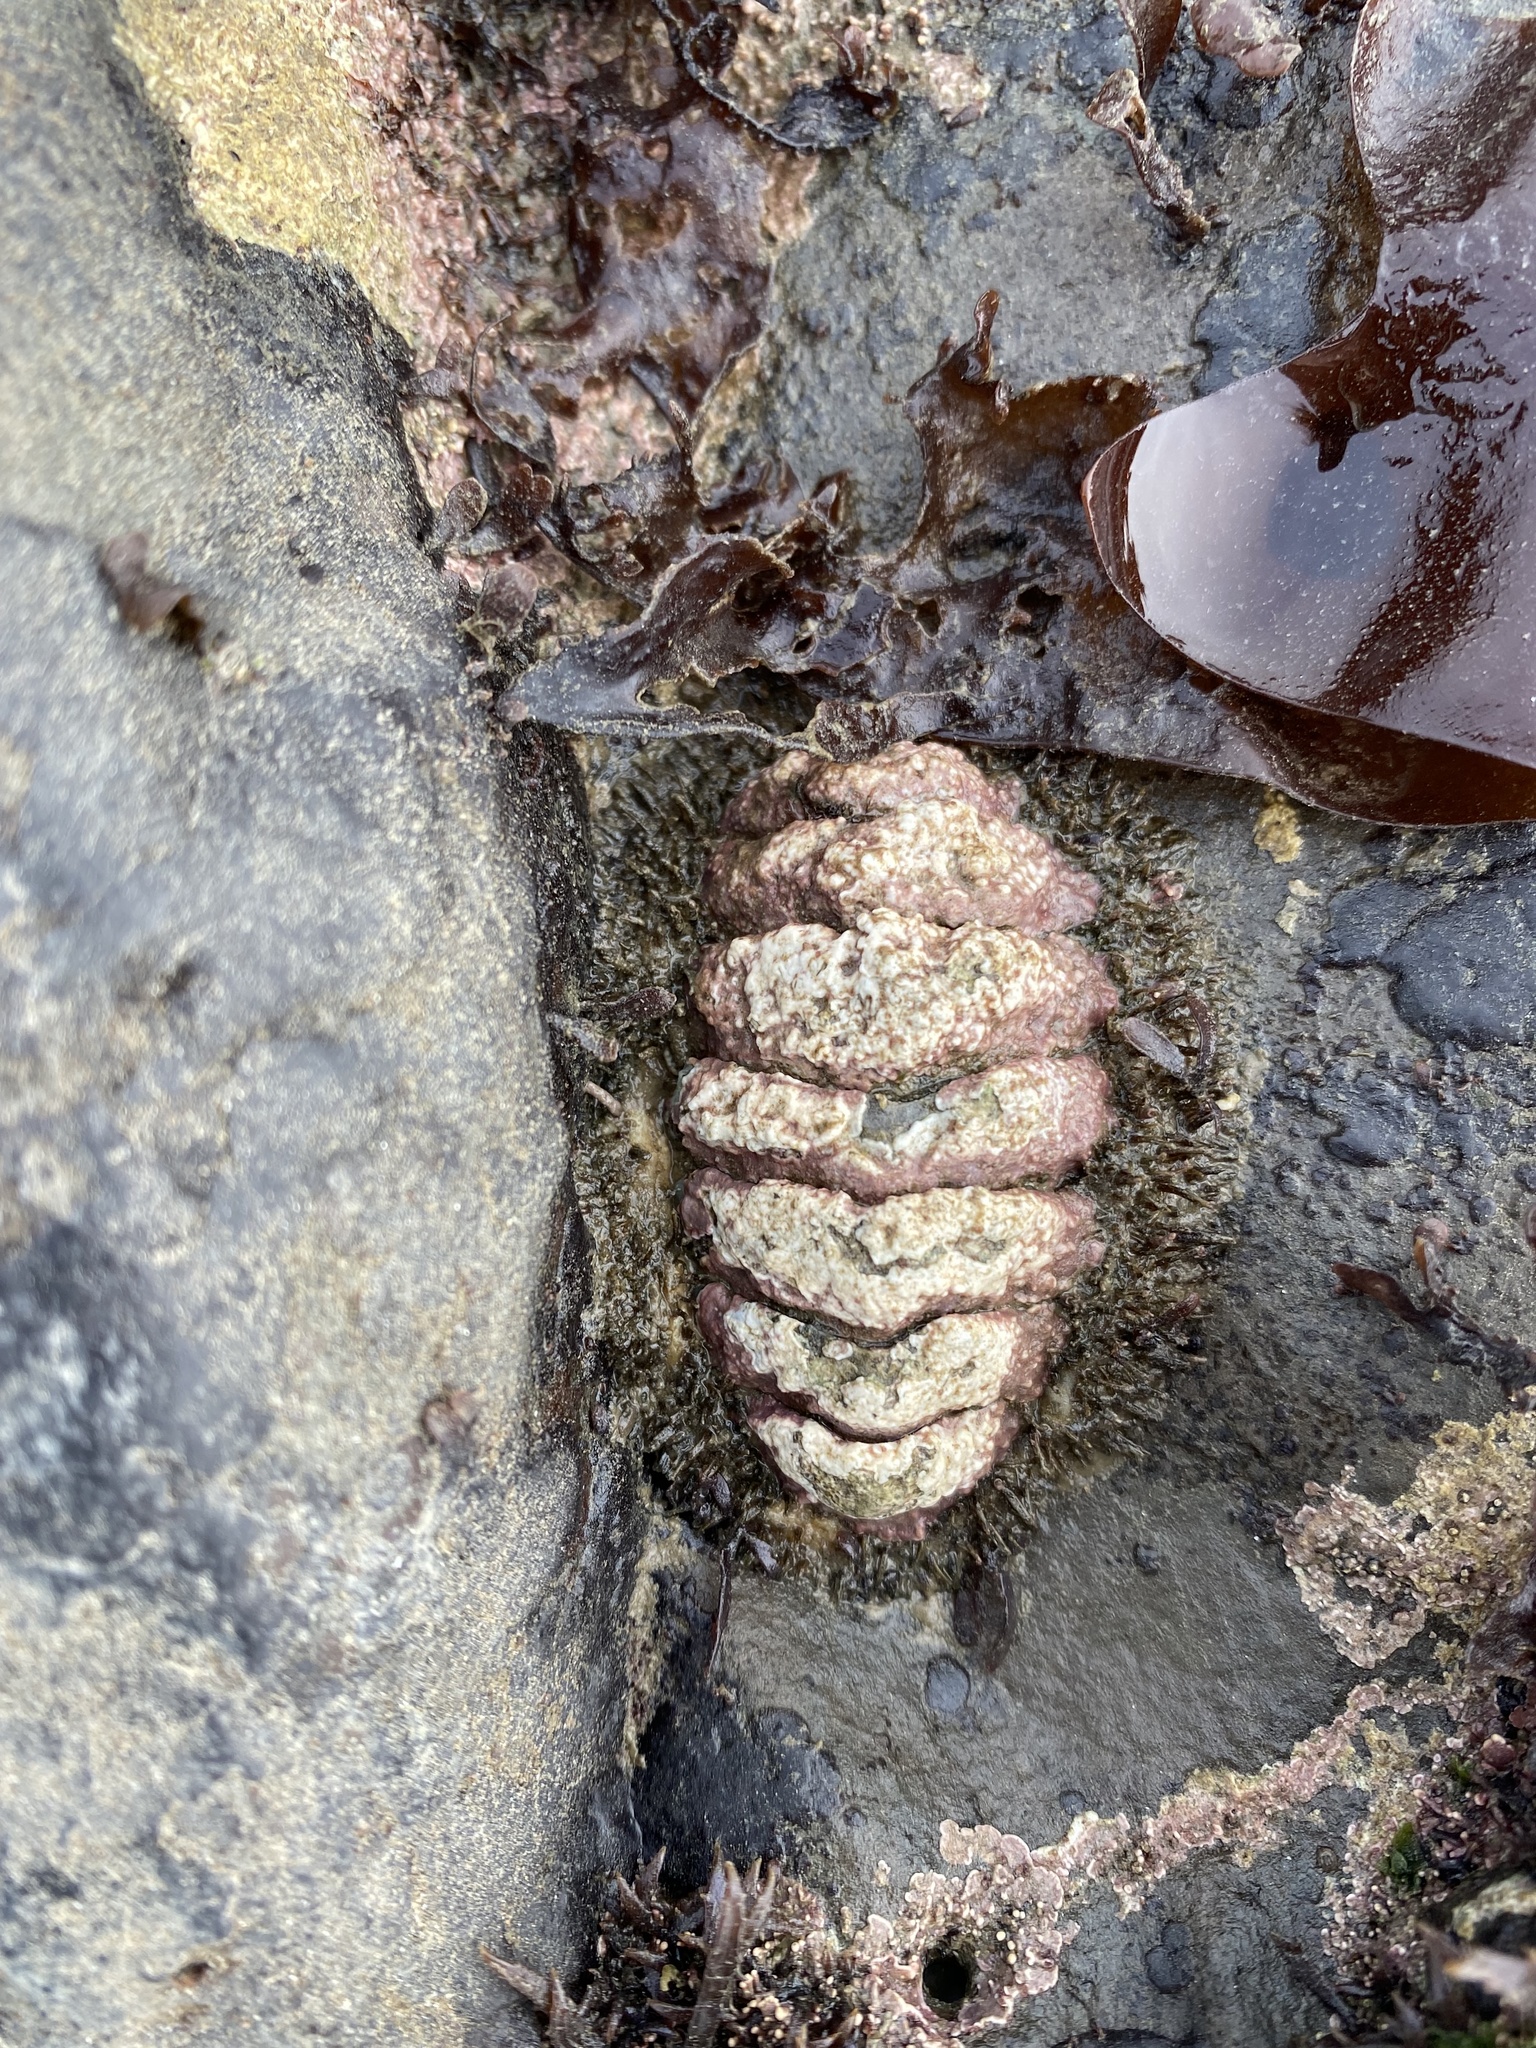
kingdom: Animalia
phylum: Mollusca
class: Polyplacophora
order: Chitonida
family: Mopaliidae
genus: Mopalia
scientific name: Mopalia muscosa
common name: Mossy chiton
